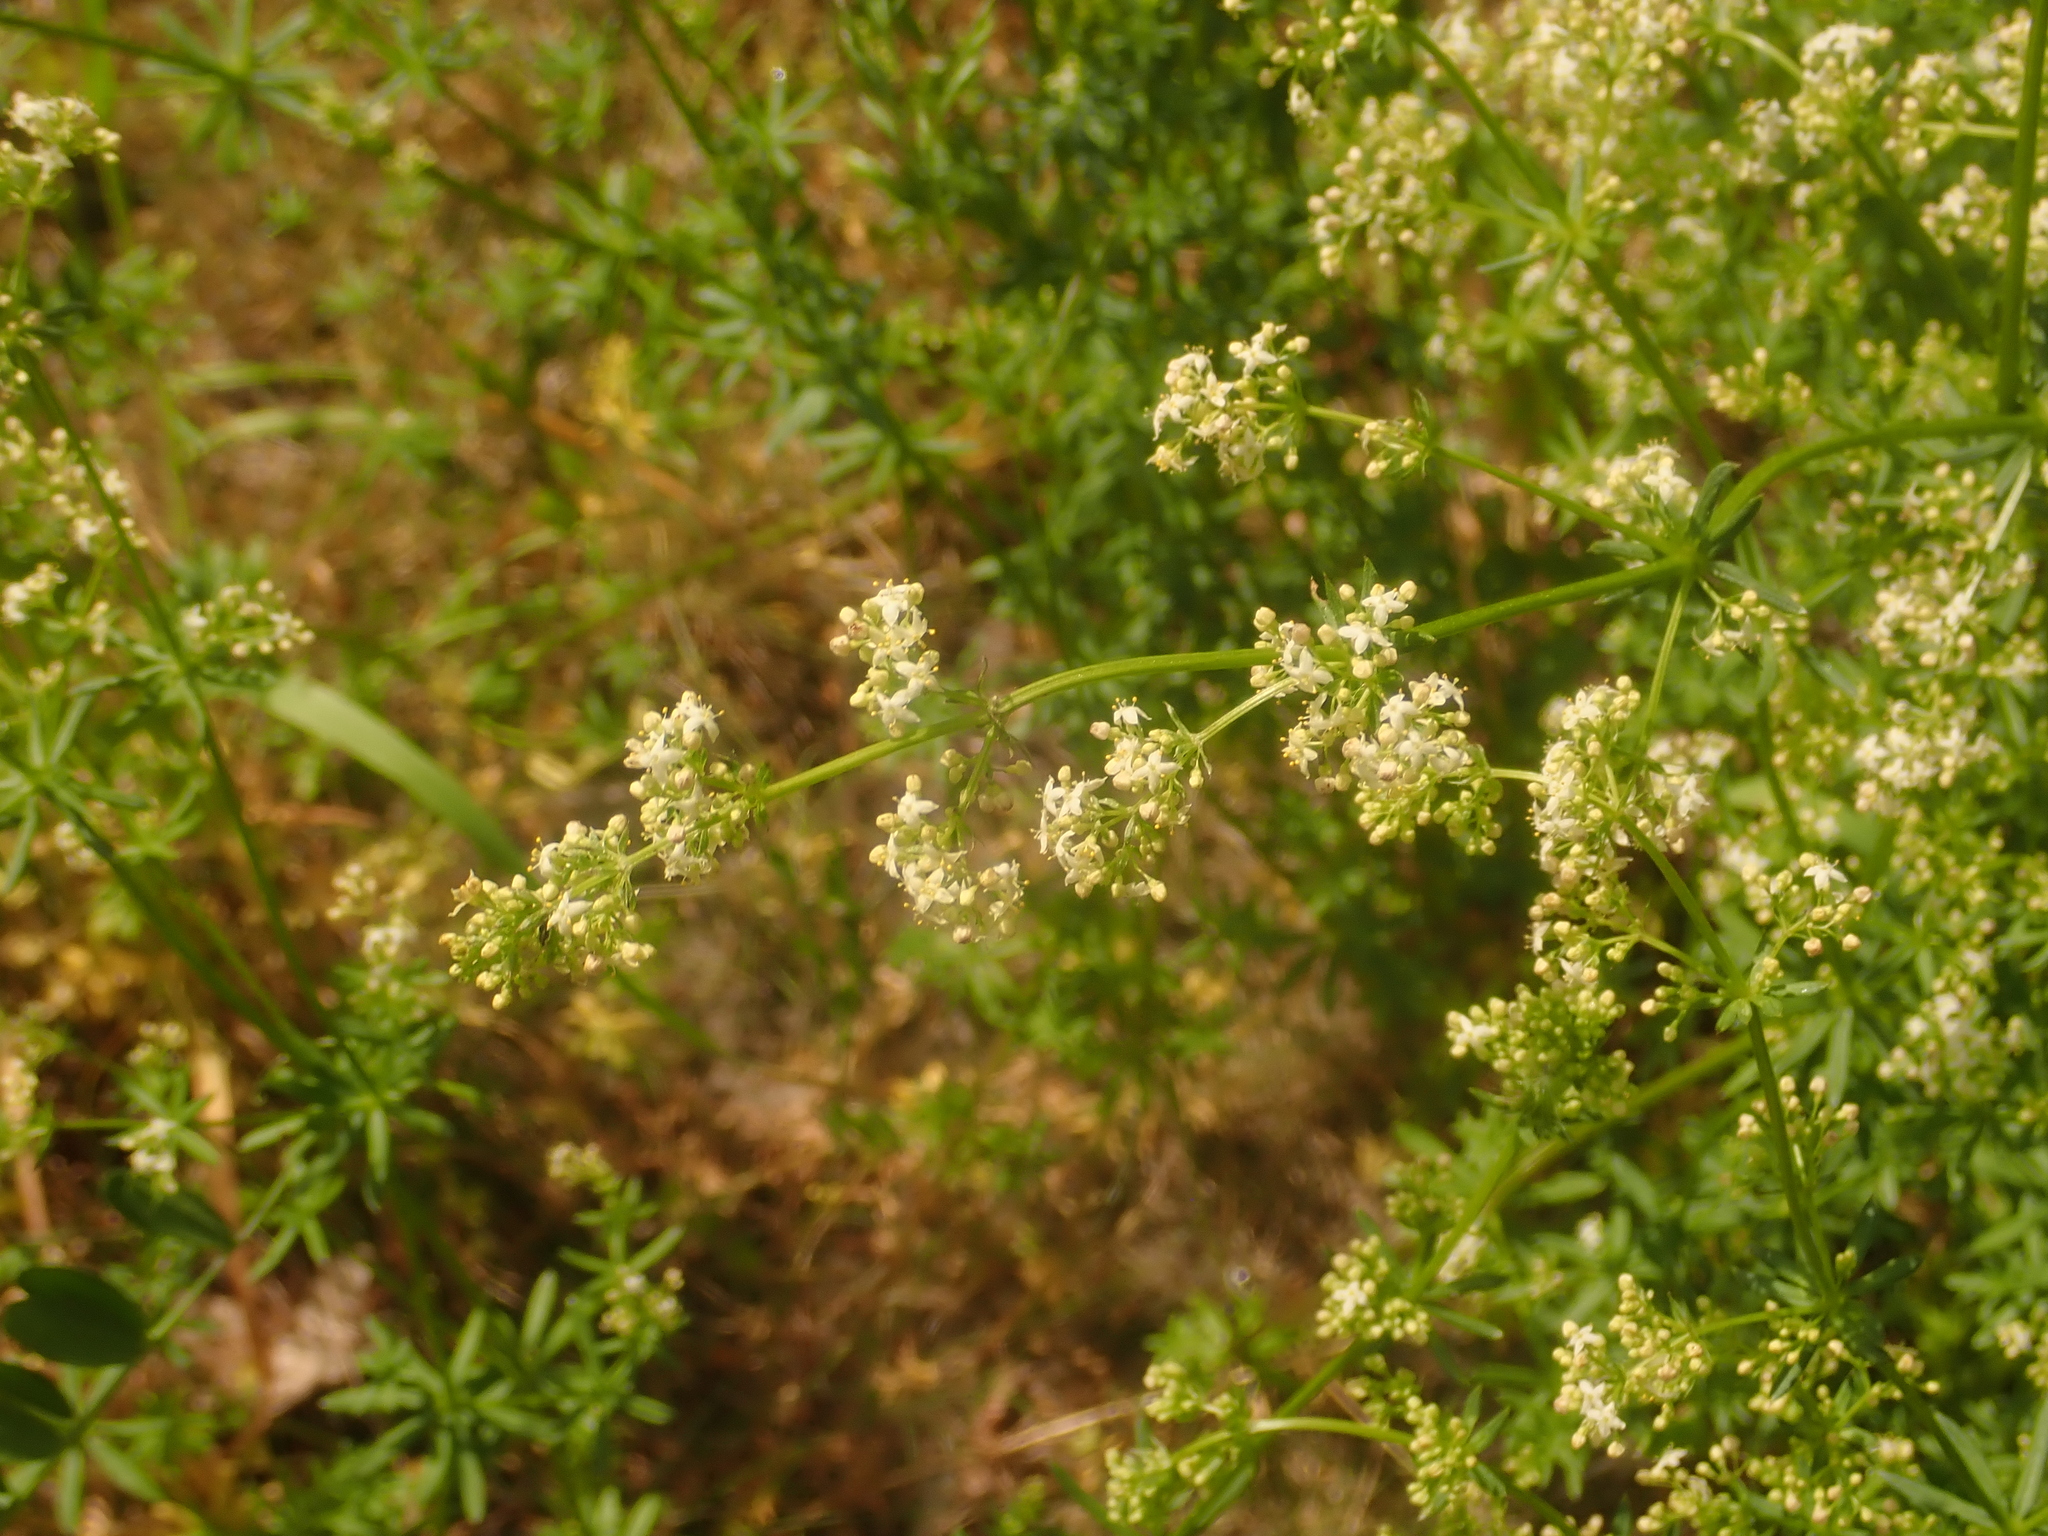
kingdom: Plantae
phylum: Tracheophyta
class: Magnoliopsida
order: Gentianales
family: Rubiaceae
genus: Galium
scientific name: Galium mollugo
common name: Hedge bedstraw
